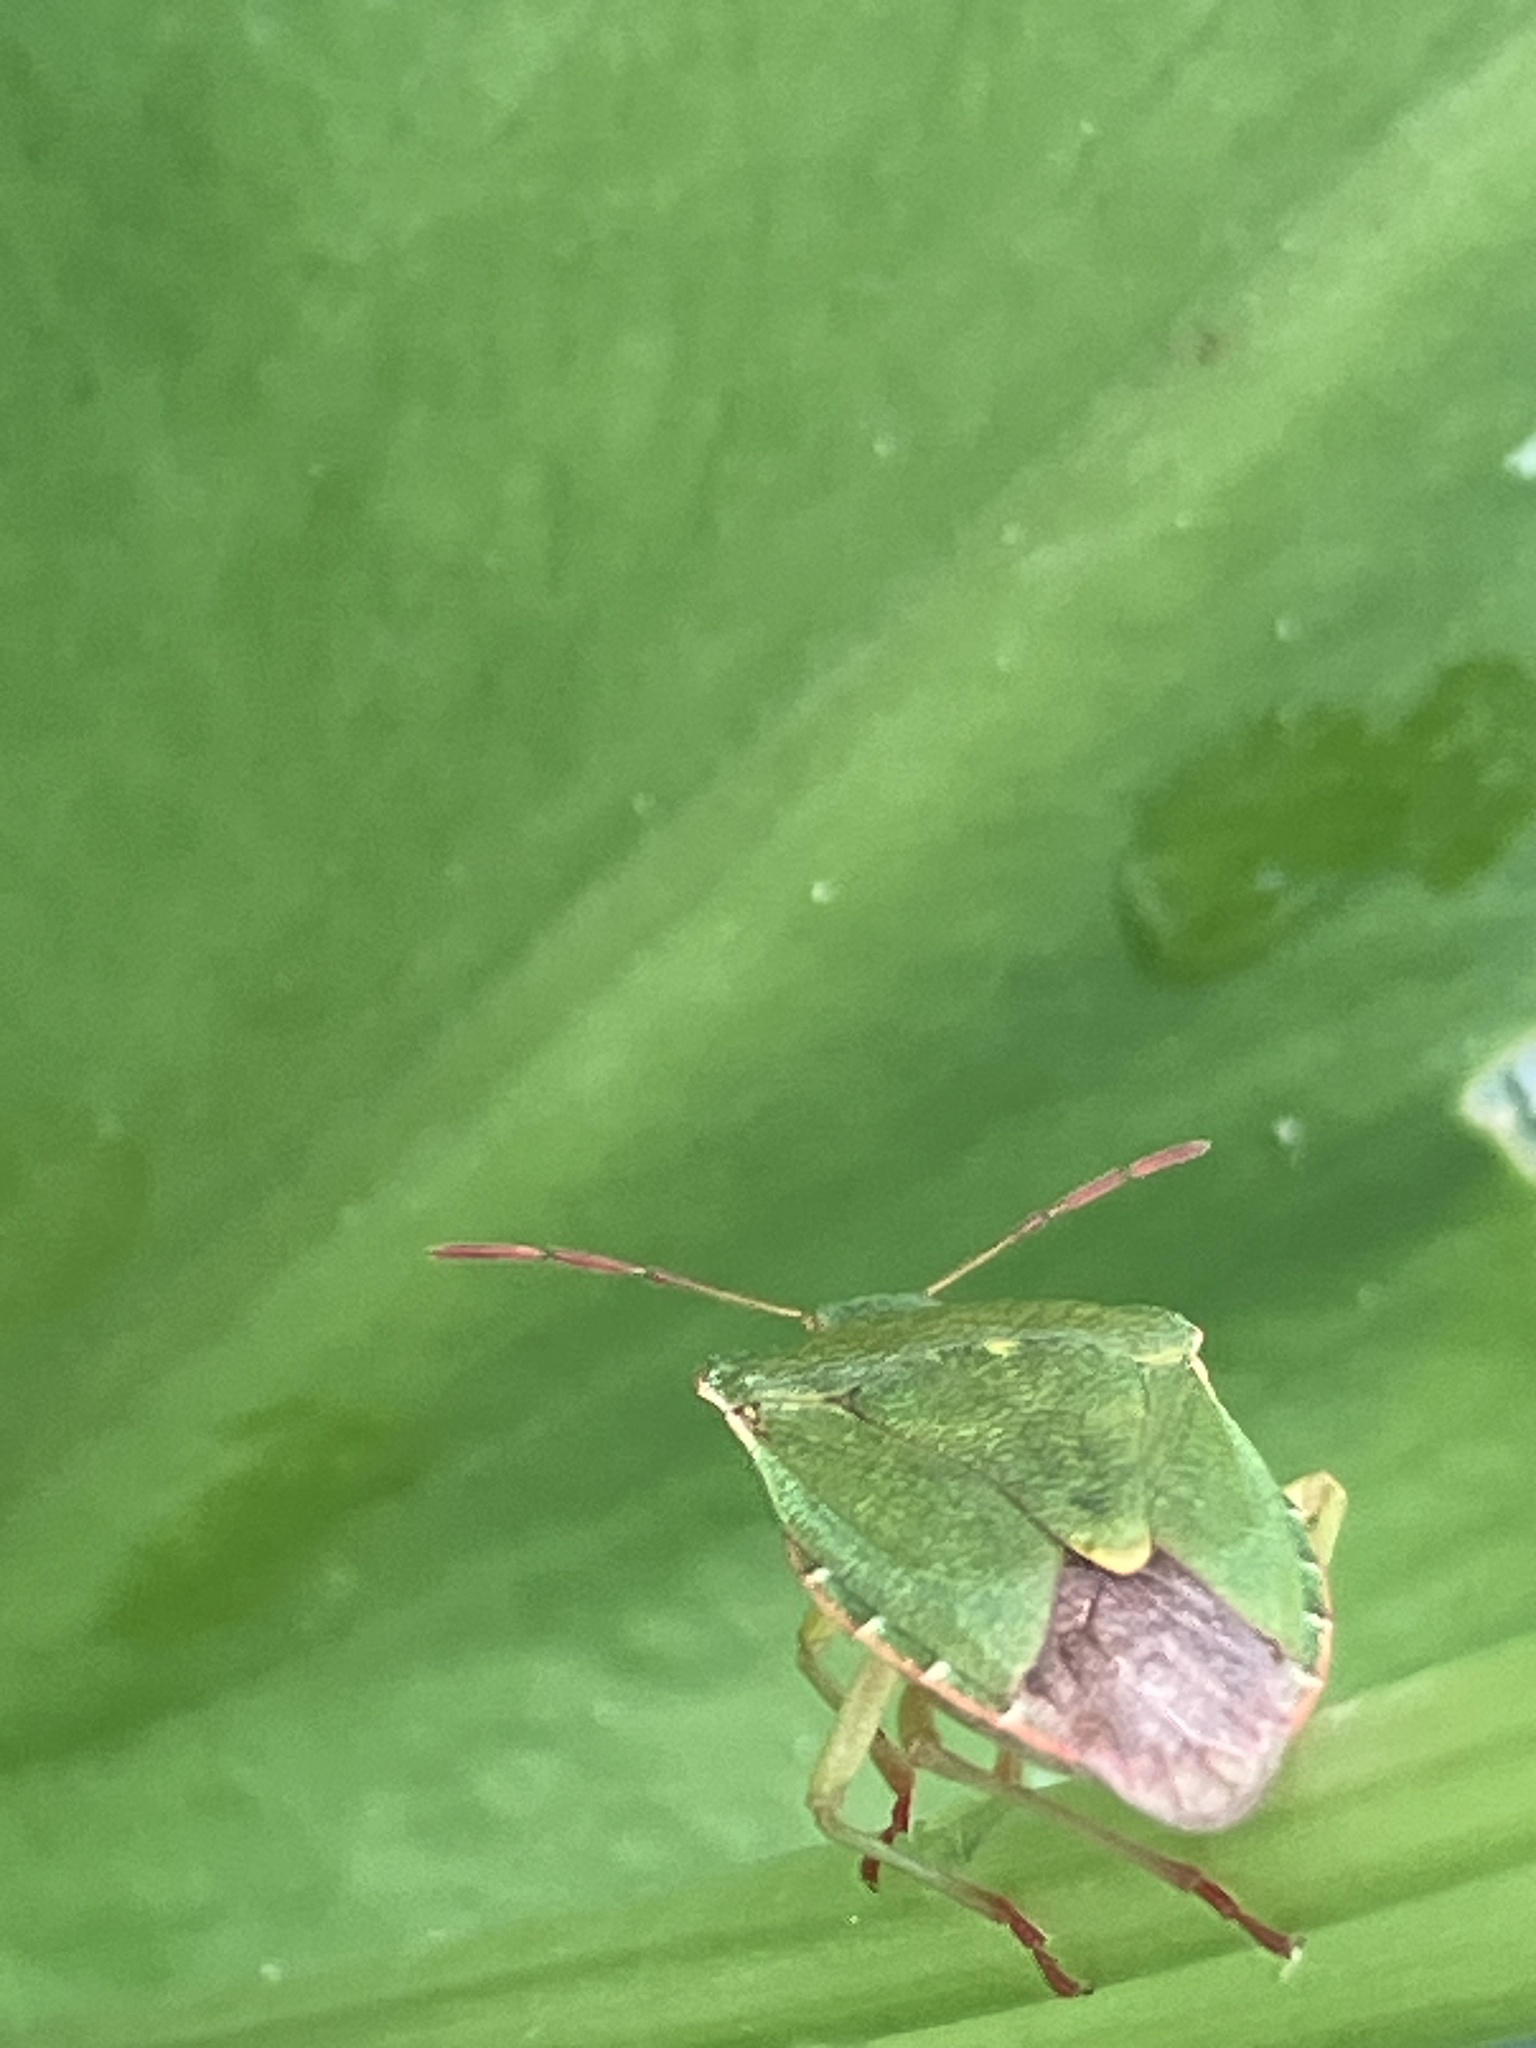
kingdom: Animalia
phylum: Arthropoda
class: Insecta
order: Hemiptera
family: Pentatomidae
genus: Palomena
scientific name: Palomena prasina
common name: Green shieldbug
